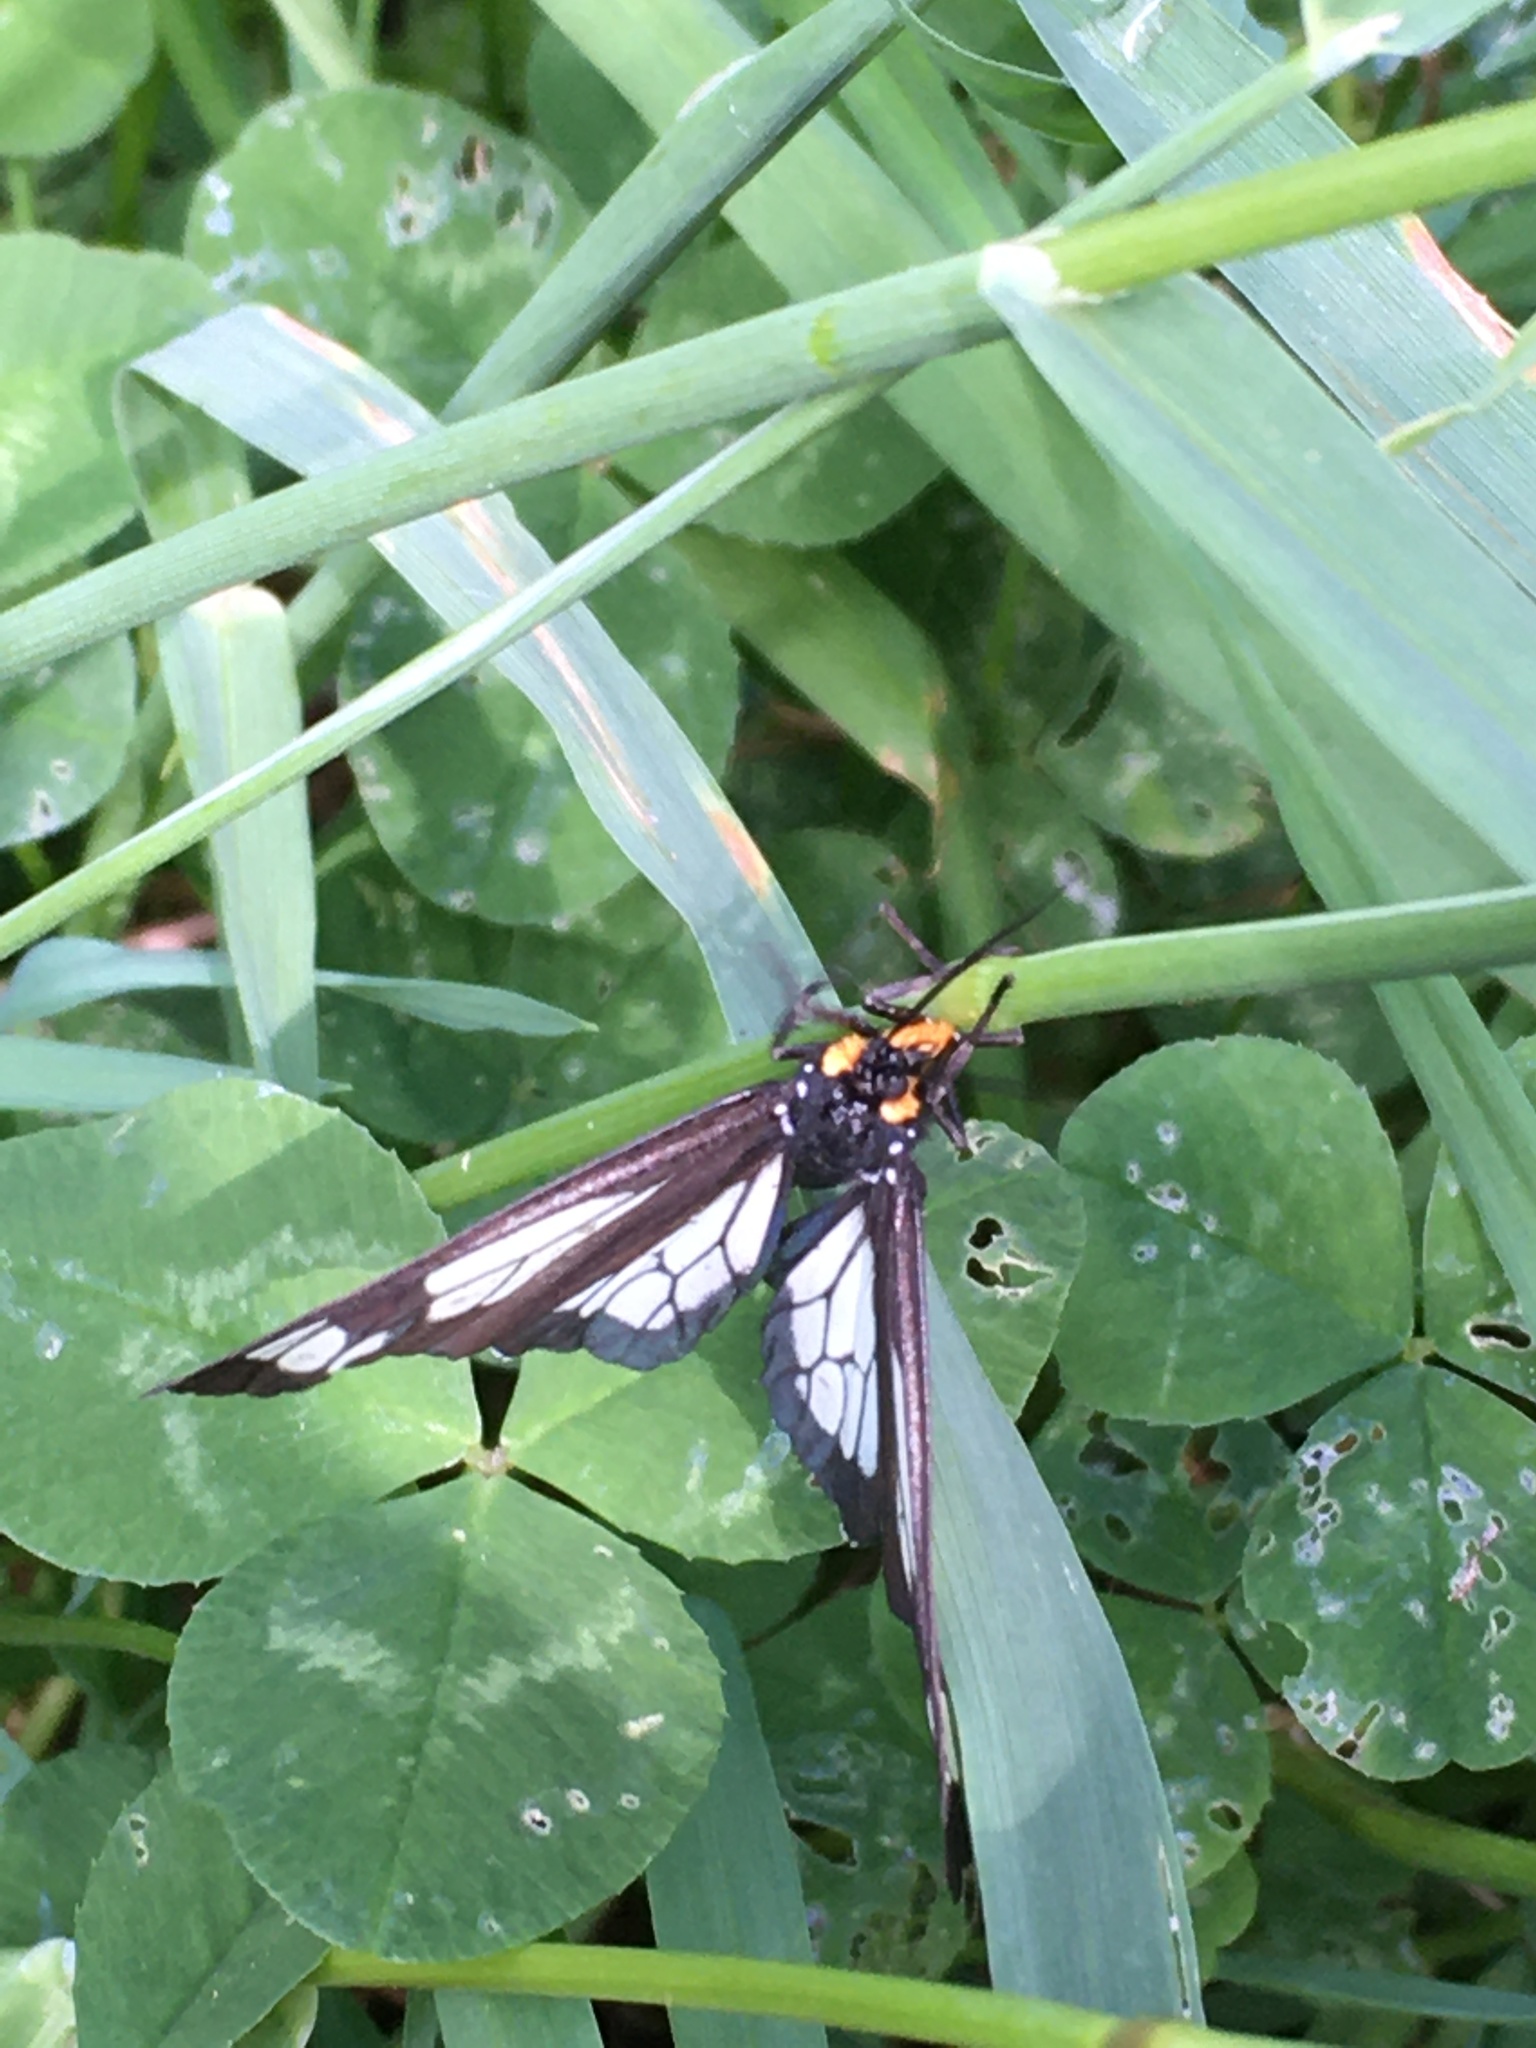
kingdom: Animalia
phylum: Arthropoda
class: Insecta
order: Lepidoptera
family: Erebidae
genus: Gnophaela
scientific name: Gnophaela vermiculata
